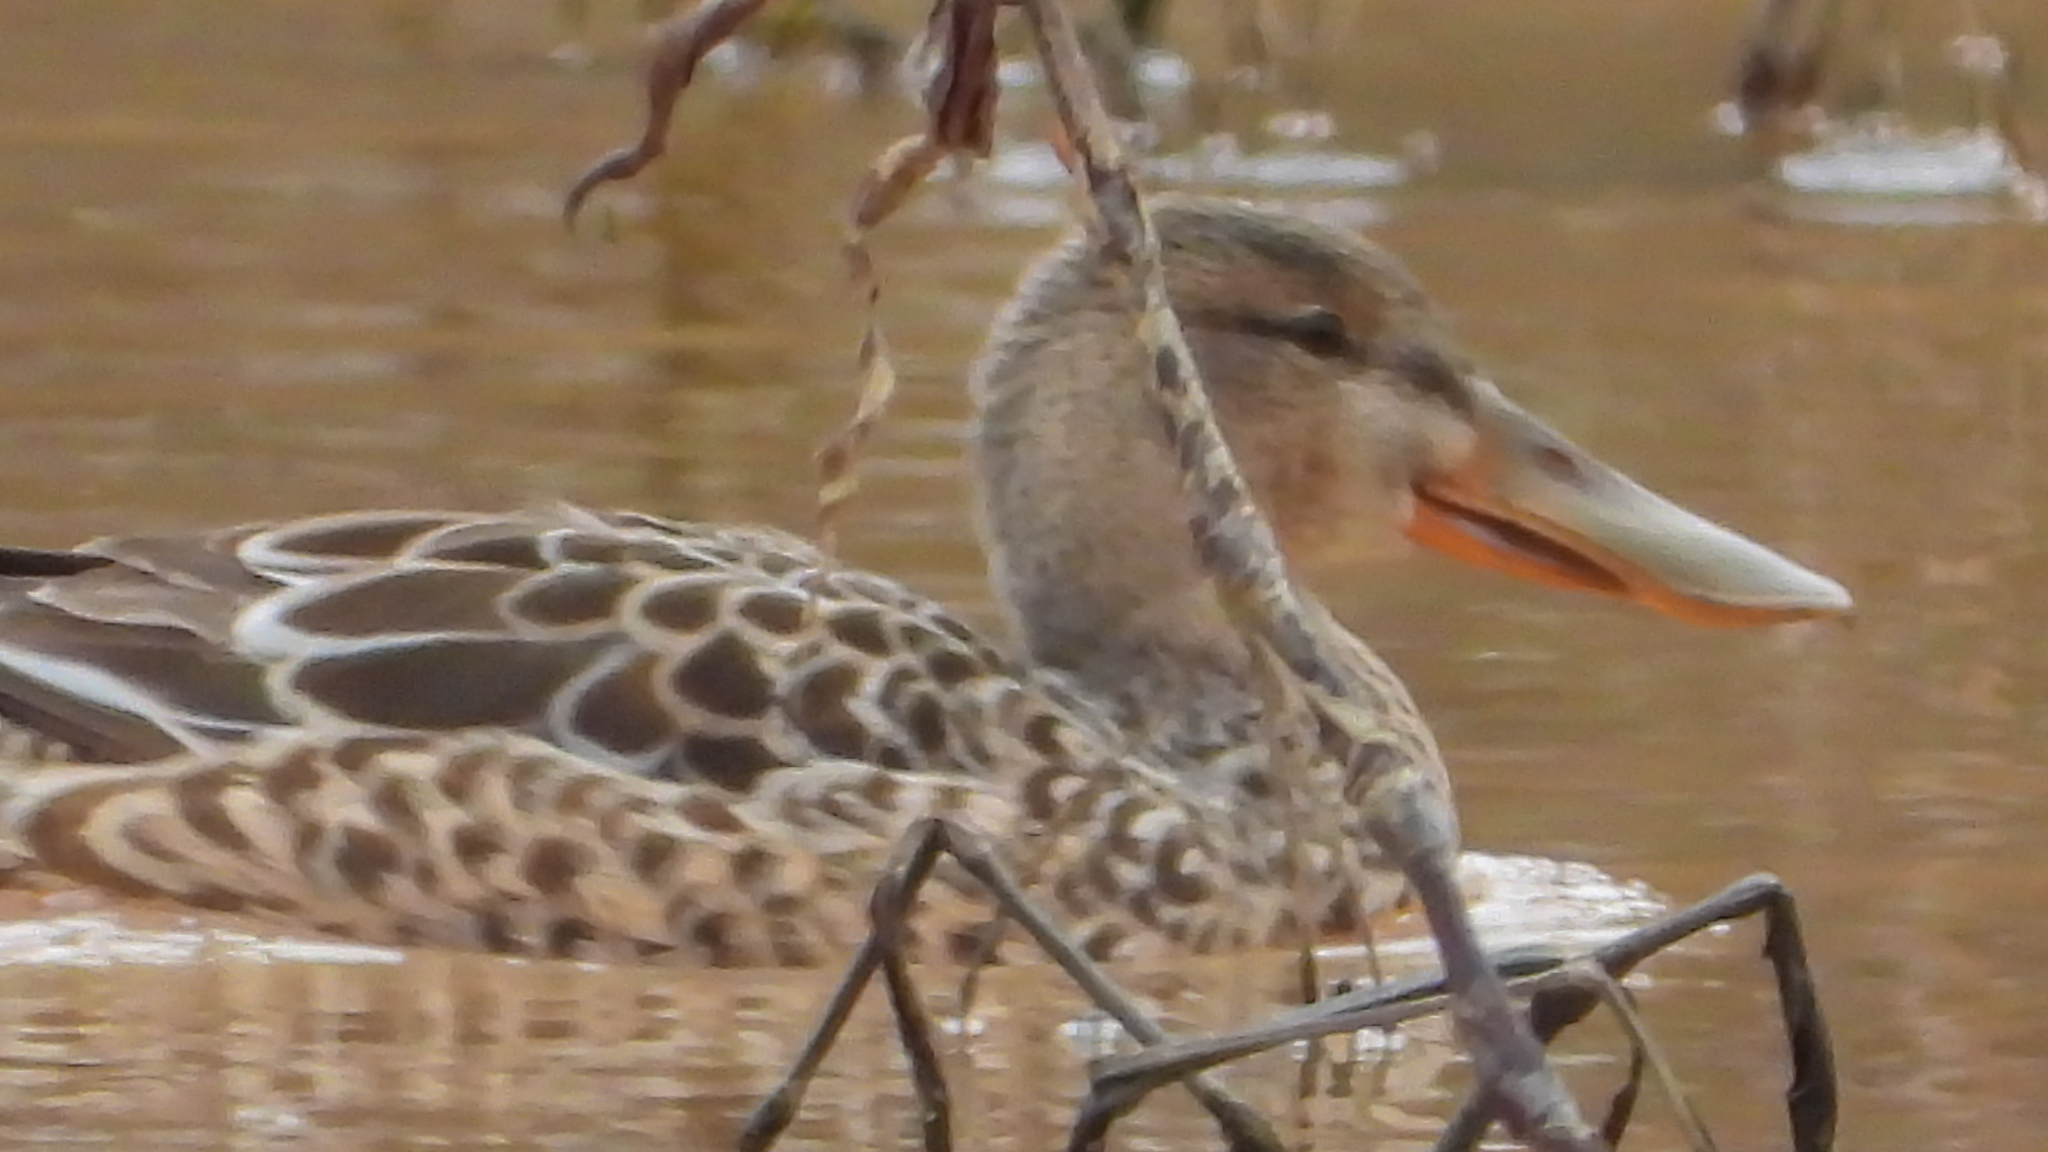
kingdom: Animalia
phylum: Chordata
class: Aves
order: Anseriformes
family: Anatidae
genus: Spatula
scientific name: Spatula clypeata
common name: Northern shoveler
